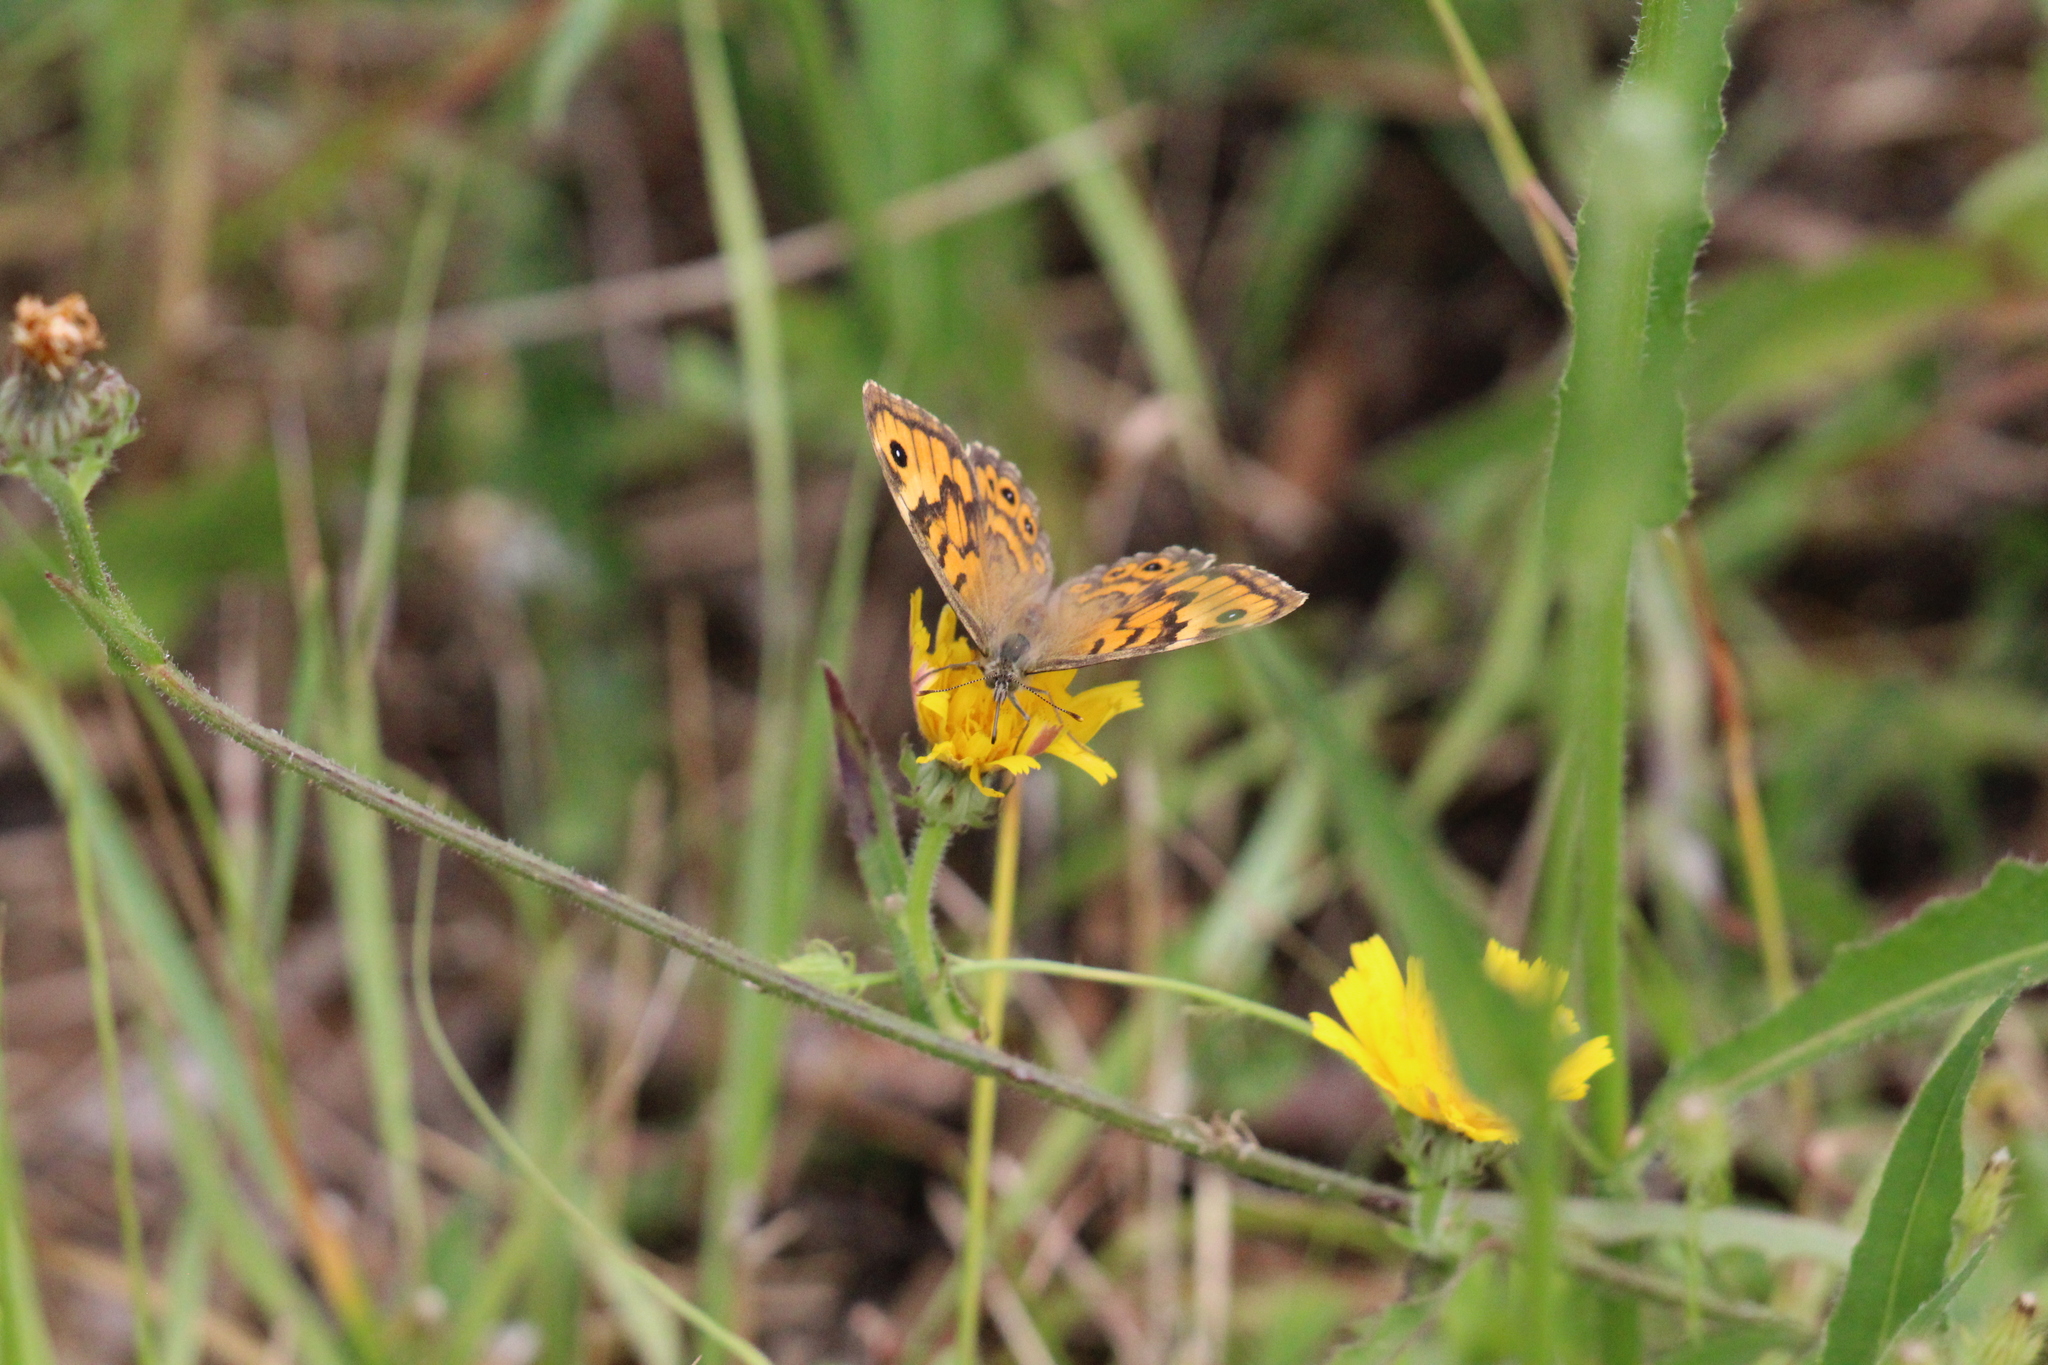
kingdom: Animalia
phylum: Arthropoda
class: Insecta
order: Lepidoptera
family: Nymphalidae
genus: Pararge
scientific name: Pararge Lasiommata megera
